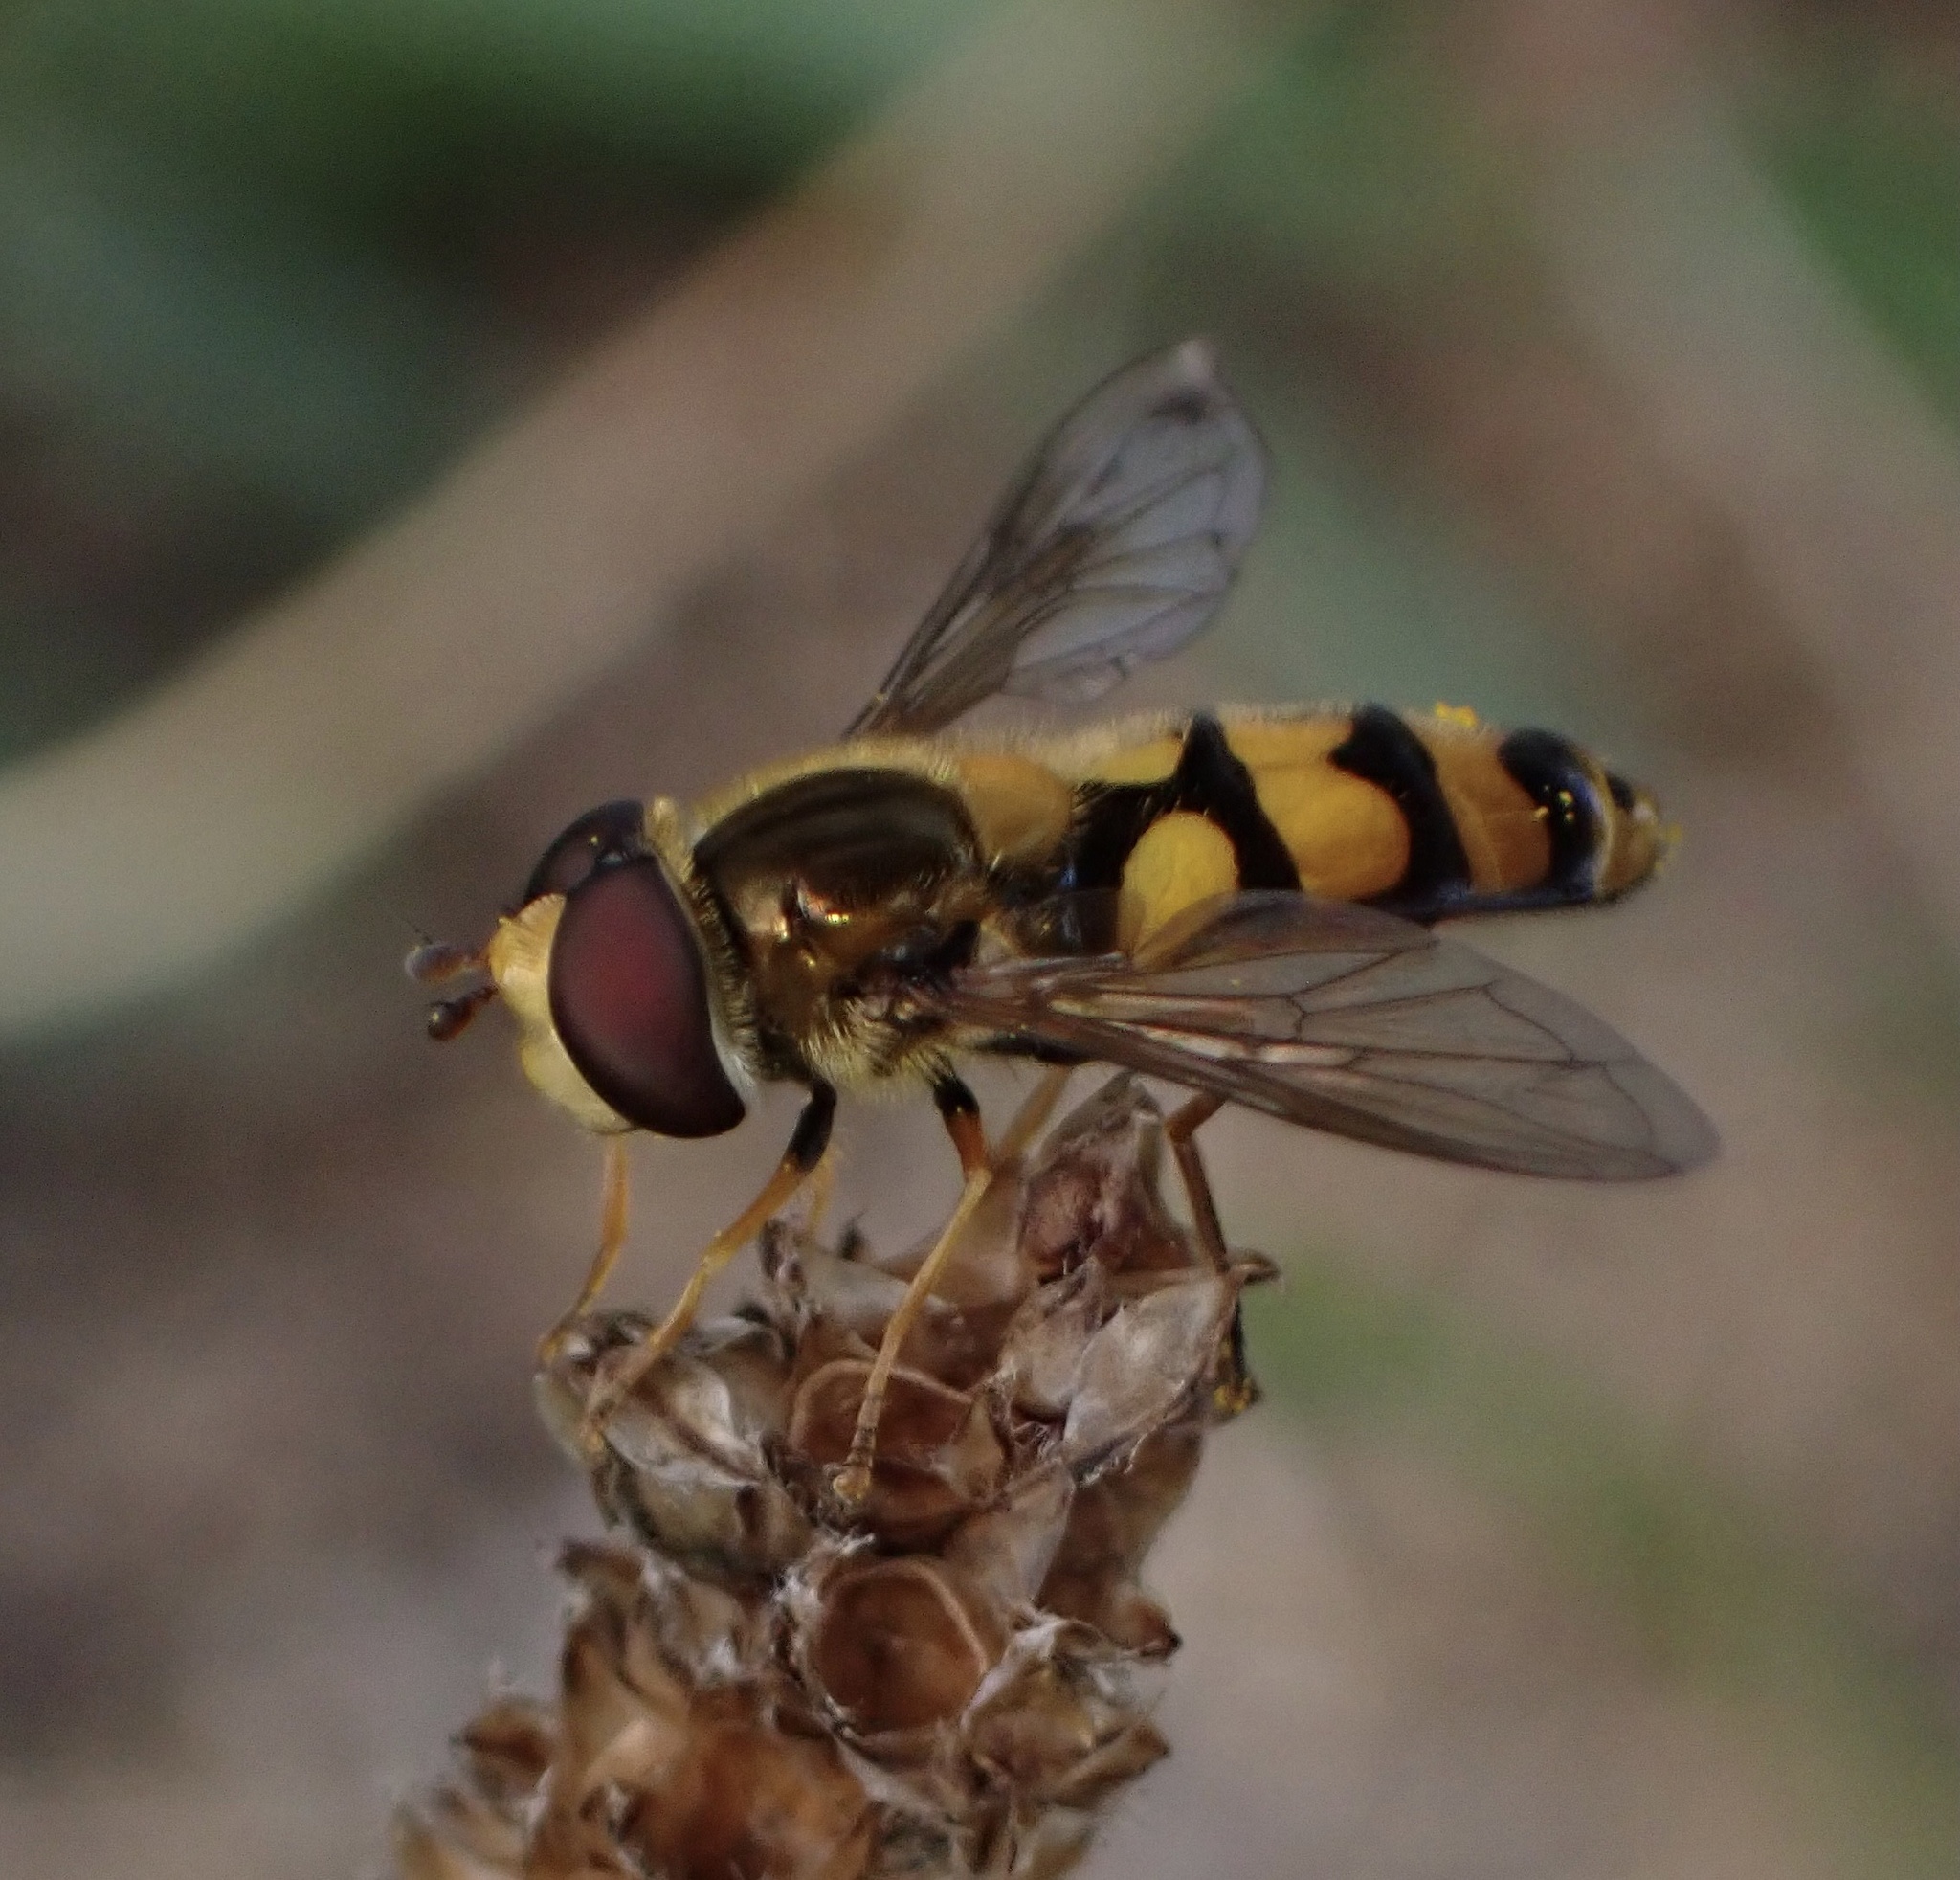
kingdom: Animalia
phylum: Arthropoda
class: Insecta
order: Diptera
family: Syrphidae
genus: Eupeodes
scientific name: Eupeodes latifasciatus
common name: Variable aphideater
